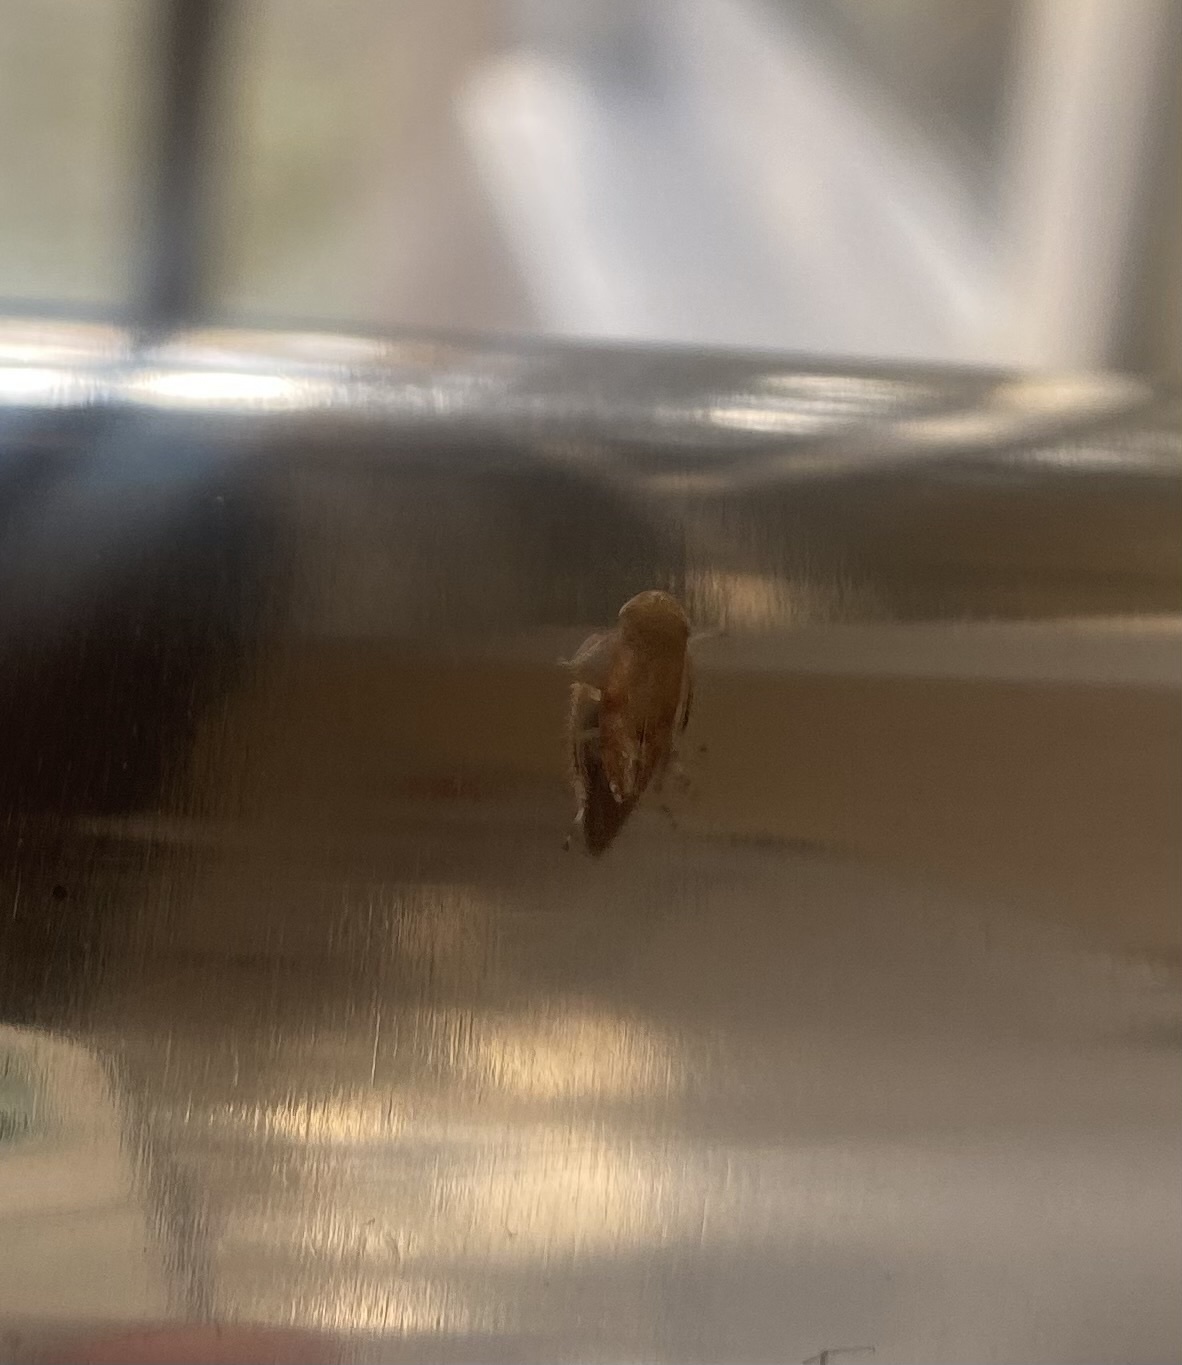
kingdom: Animalia
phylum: Arthropoda
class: Insecta
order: Hemiptera
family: Cicadellidae
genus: Fieberiella
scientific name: Fieberiella
